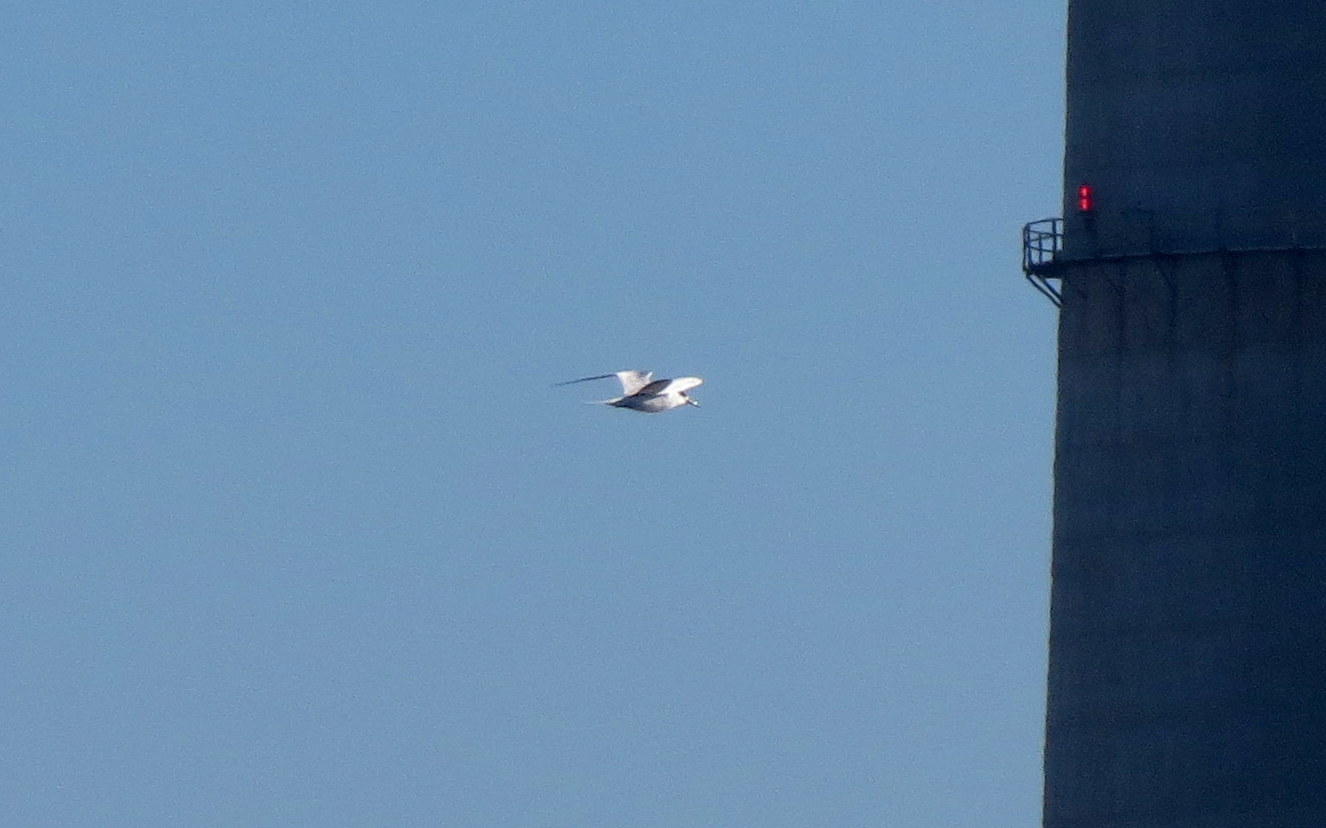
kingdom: Animalia
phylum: Chordata
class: Aves
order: Charadriiformes
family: Laridae
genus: Sterna
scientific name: Sterna forsteri
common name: Forster's tern
